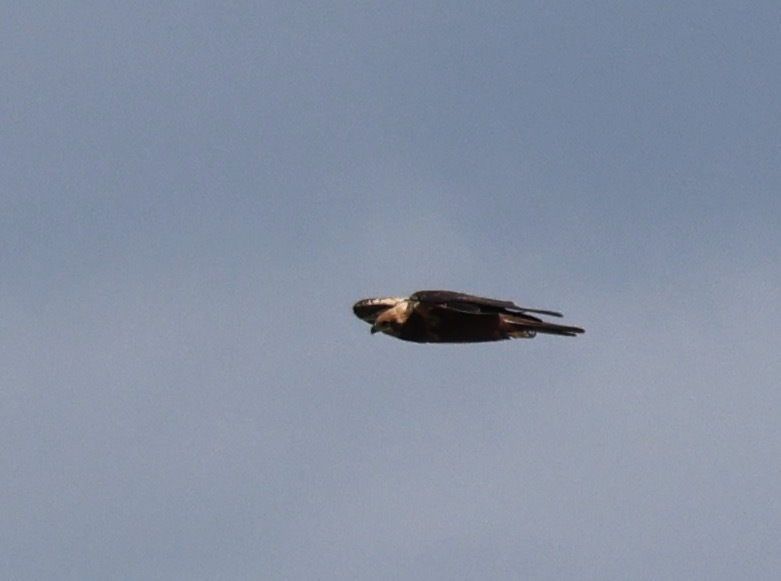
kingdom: Animalia
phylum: Chordata
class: Aves
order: Accipitriformes
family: Accipitridae
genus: Circus
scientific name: Circus aeruginosus
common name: Western marsh harrier
